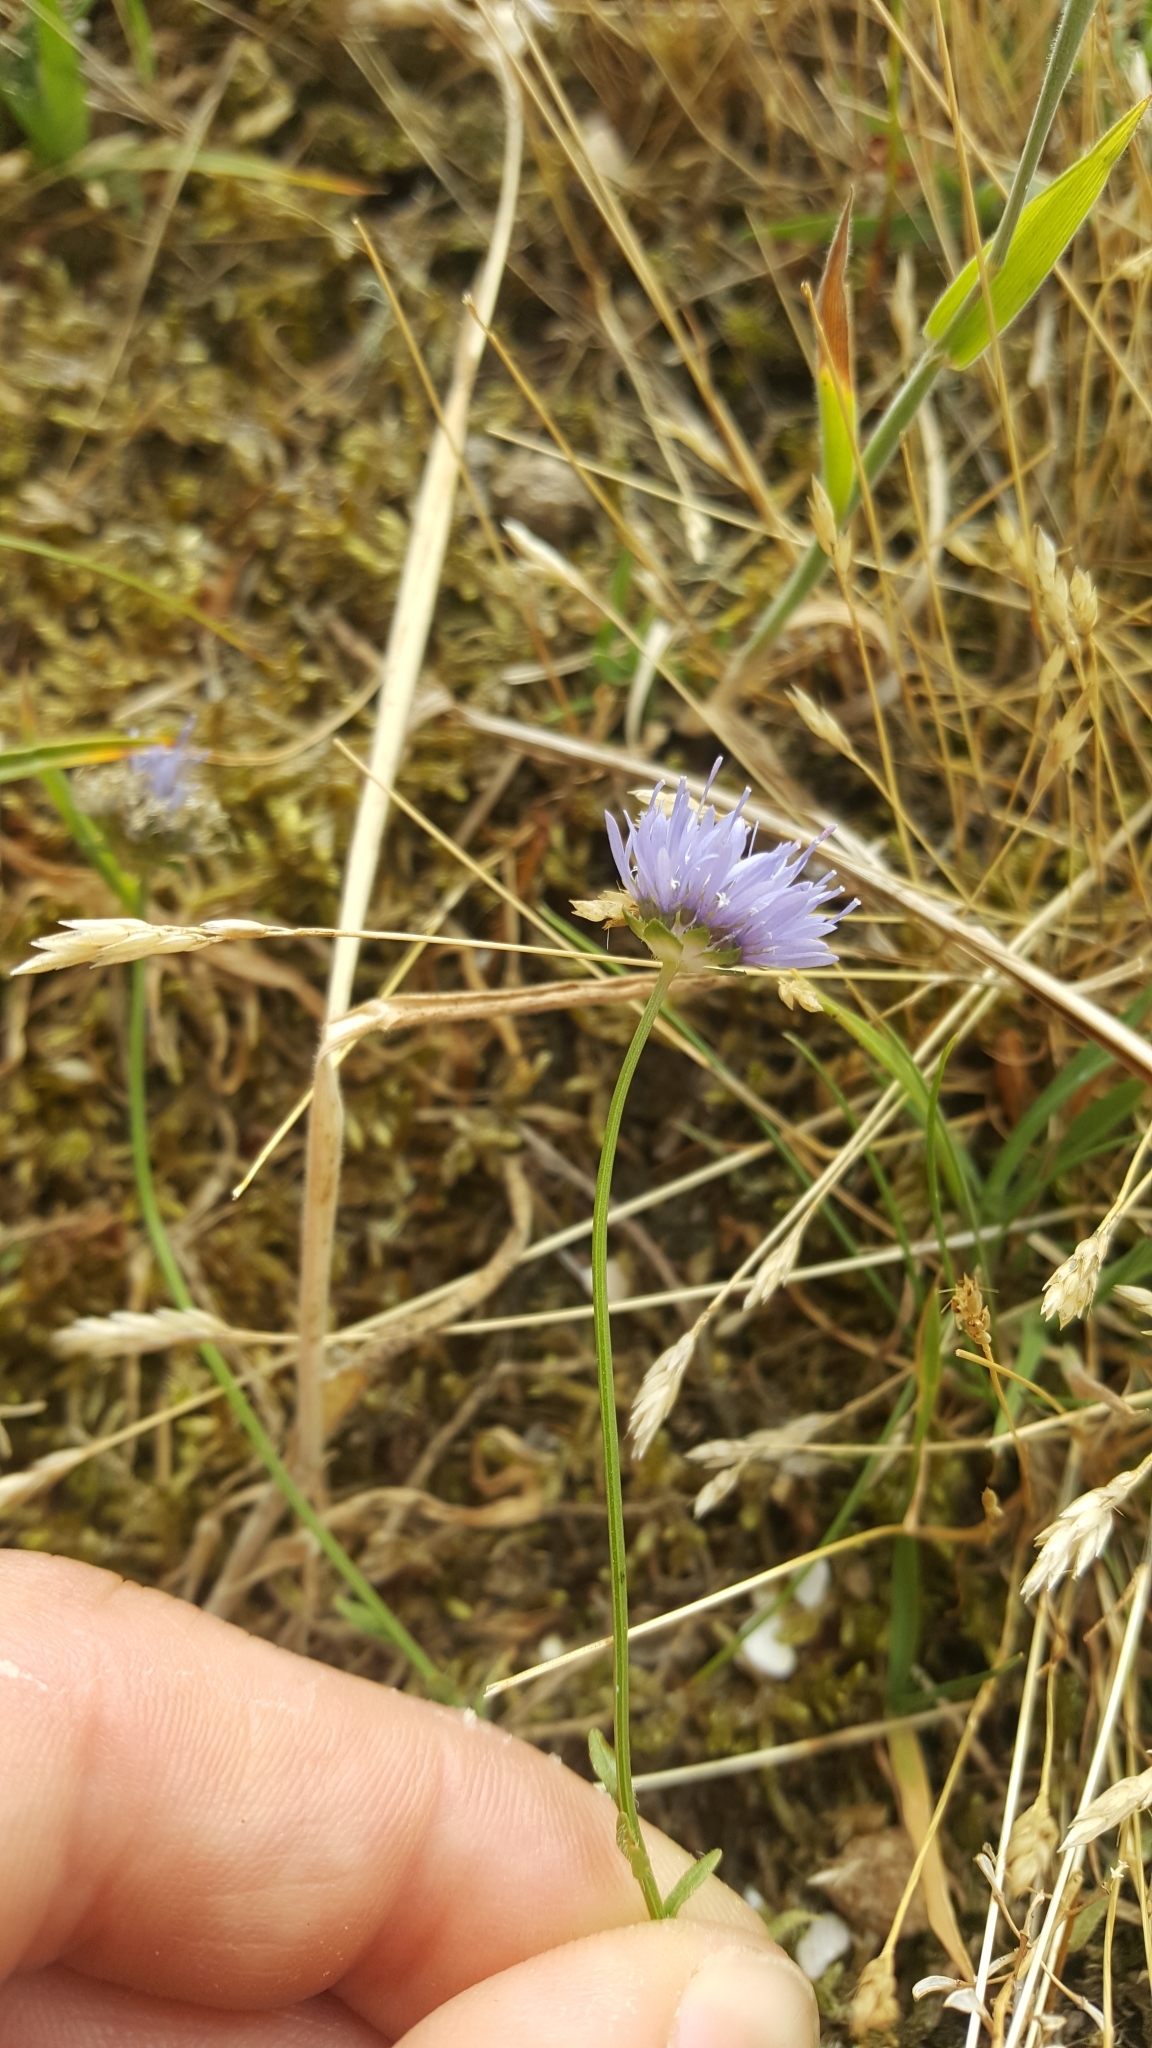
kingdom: Plantae
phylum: Tracheophyta
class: Magnoliopsida
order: Asterales
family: Campanulaceae
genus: Jasione
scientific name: Jasione montana
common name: Sheep's-bit
